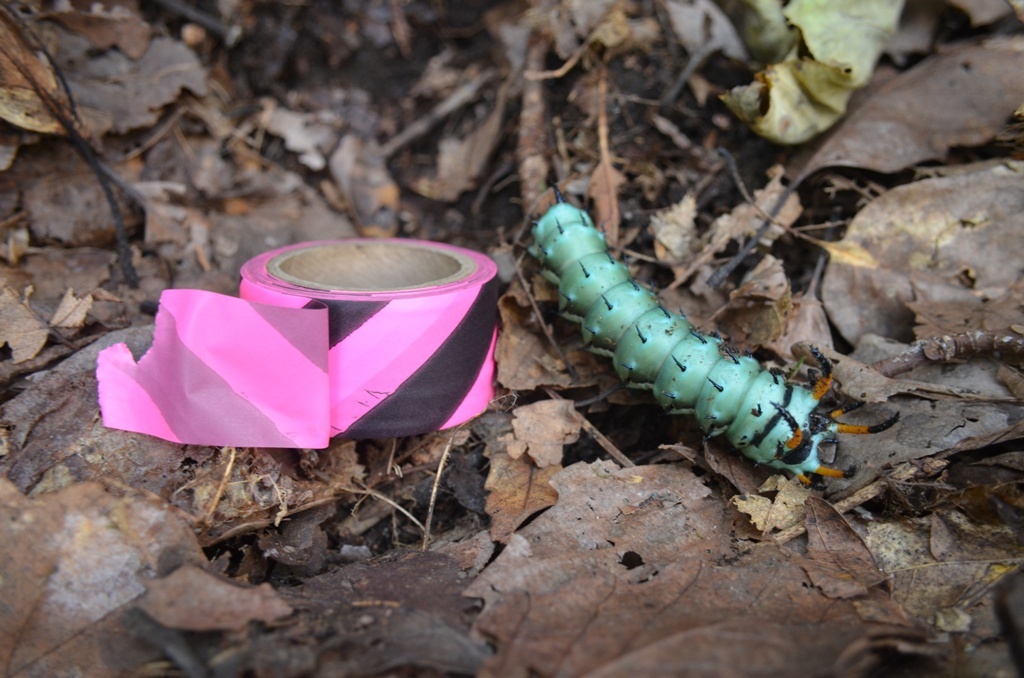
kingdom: Animalia
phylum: Arthropoda
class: Insecta
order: Lepidoptera
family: Saturniidae
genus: Citheronia
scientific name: Citheronia regalis
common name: Hickory horned devil
